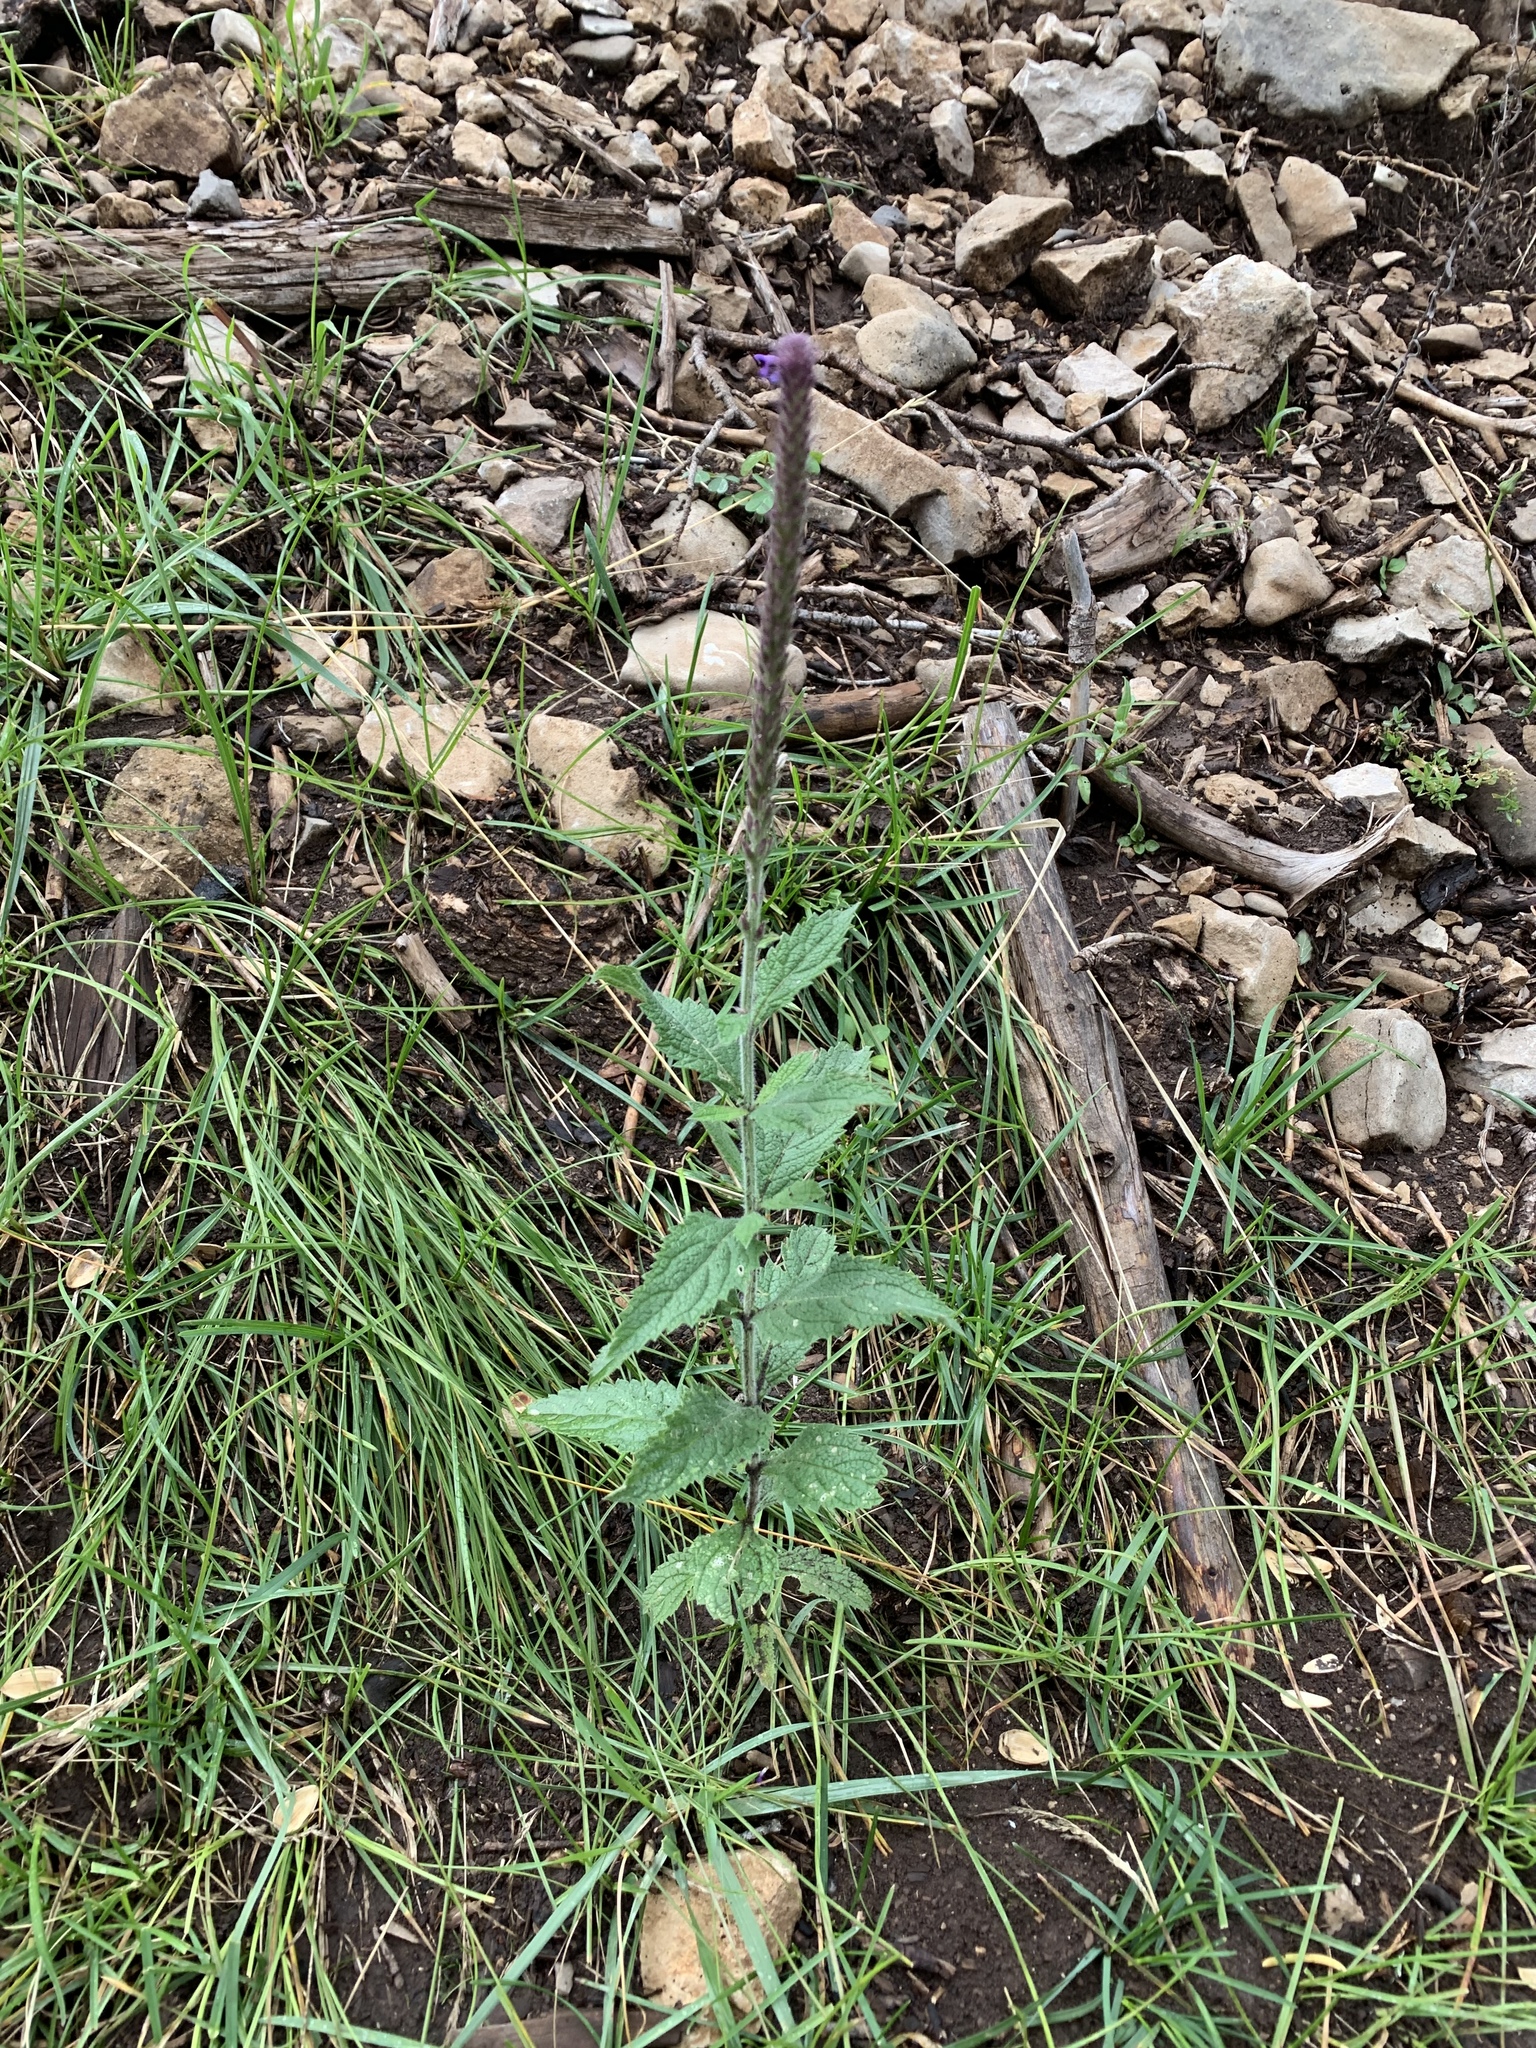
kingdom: Plantae
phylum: Tracheophyta
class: Magnoliopsida
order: Lamiales
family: Verbenaceae
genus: Verbena
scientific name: Verbena macdougalii
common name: New mexico vervain
